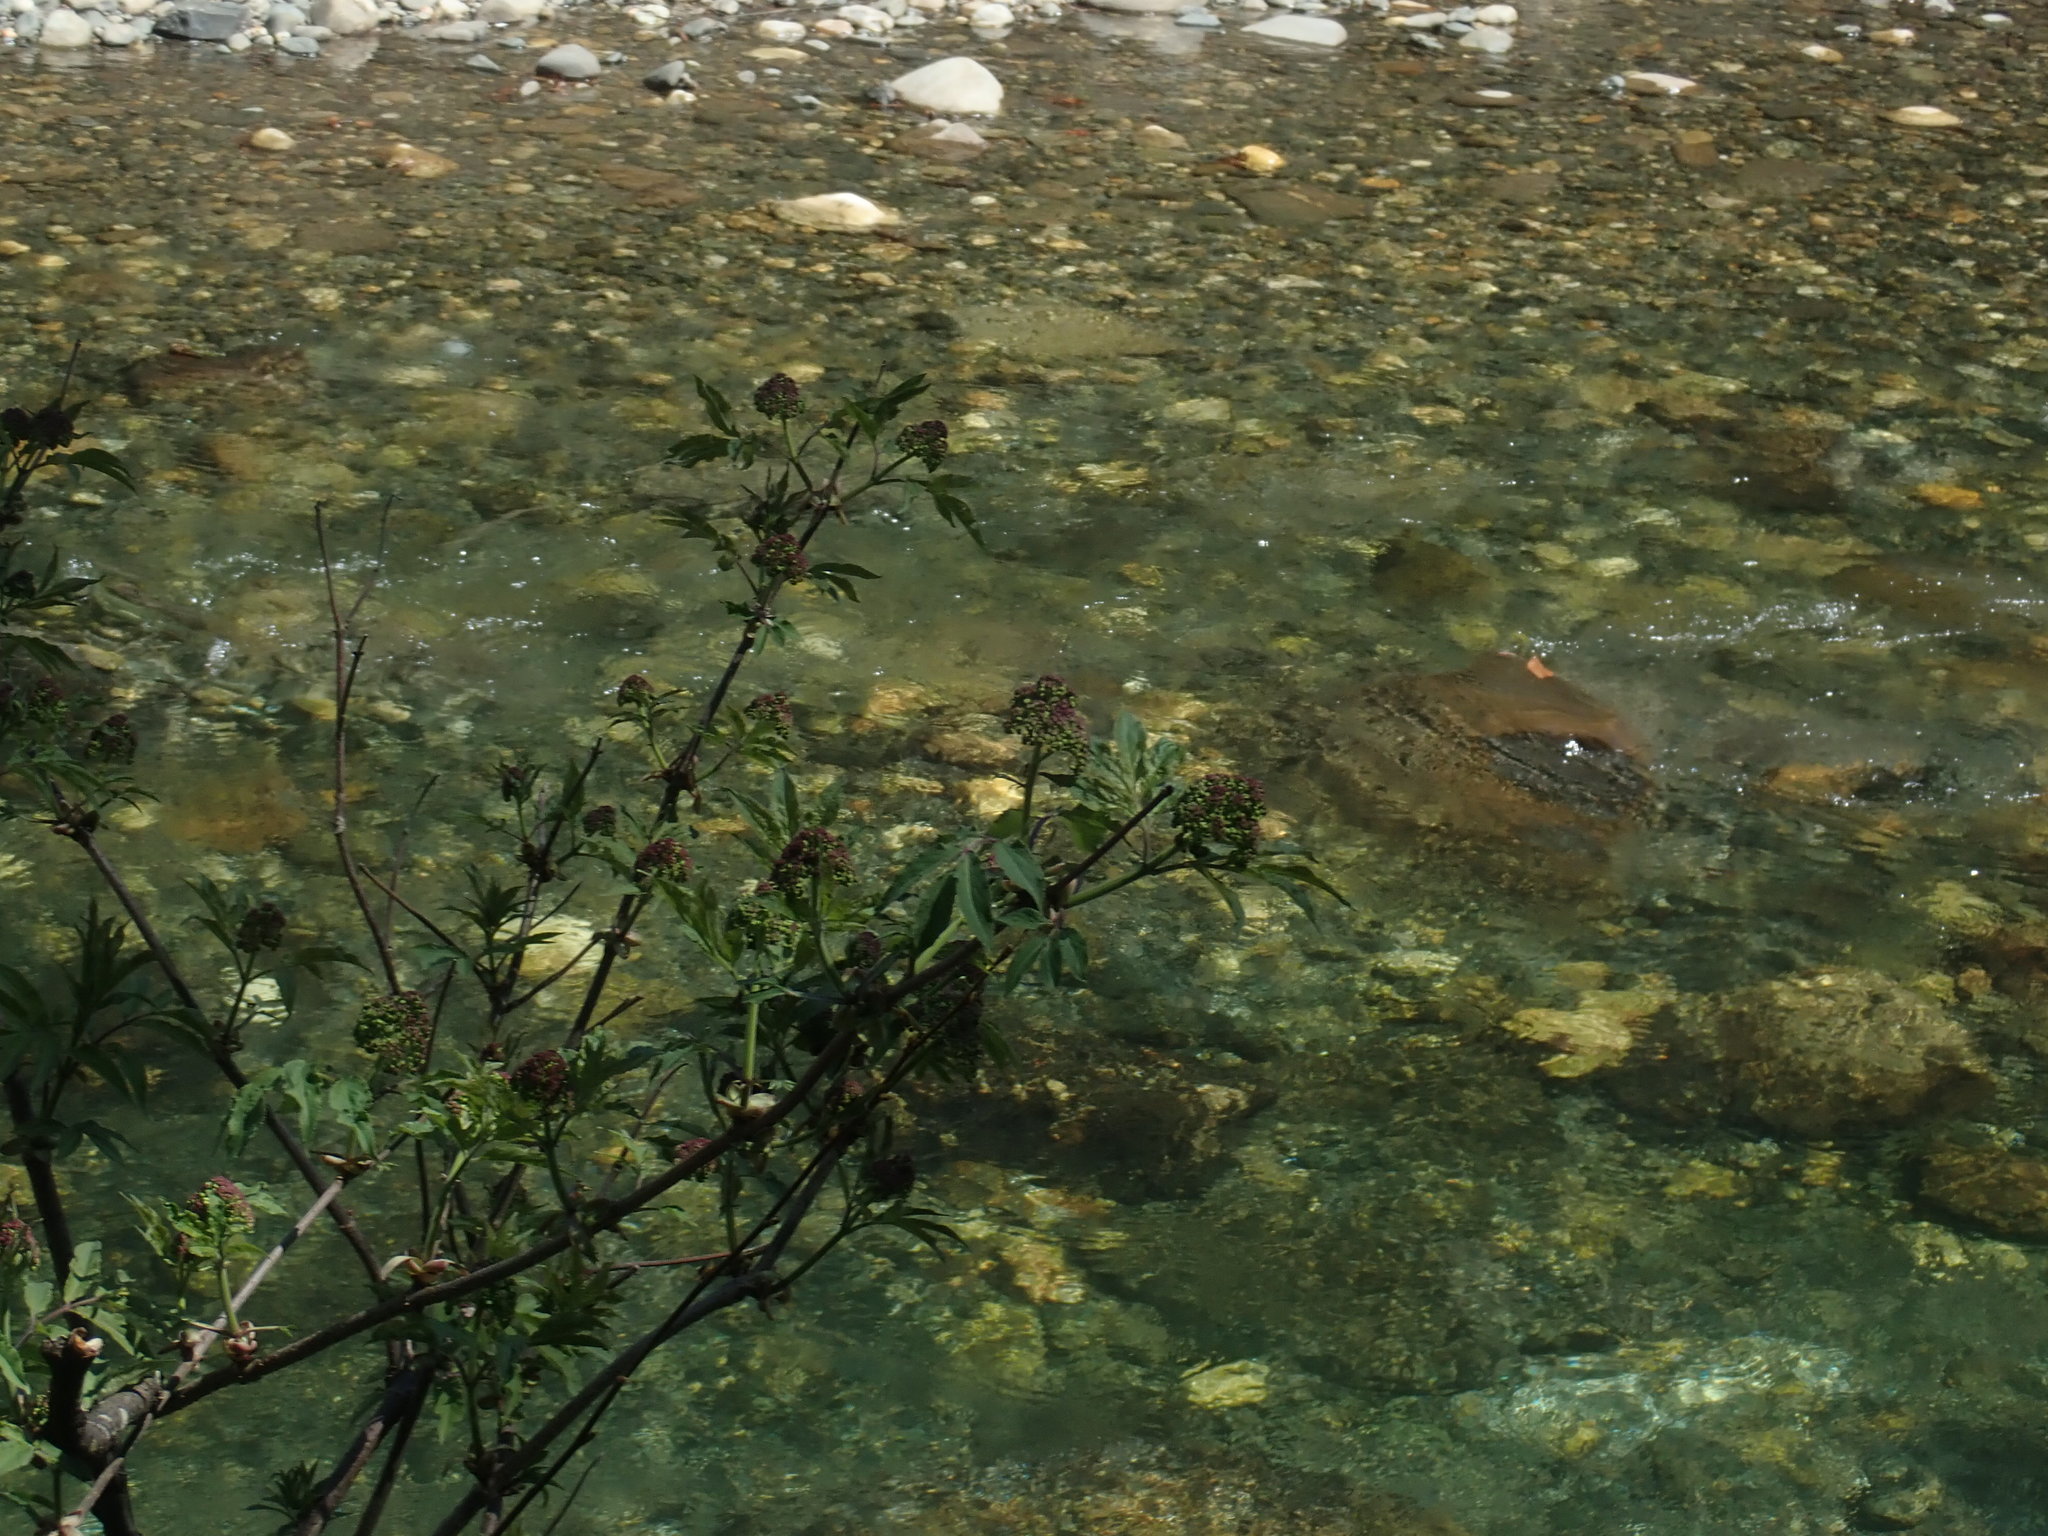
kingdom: Plantae
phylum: Tracheophyta
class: Magnoliopsida
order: Dipsacales
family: Viburnaceae
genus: Sambucus
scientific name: Sambucus racemosa
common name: Red-berried elder
